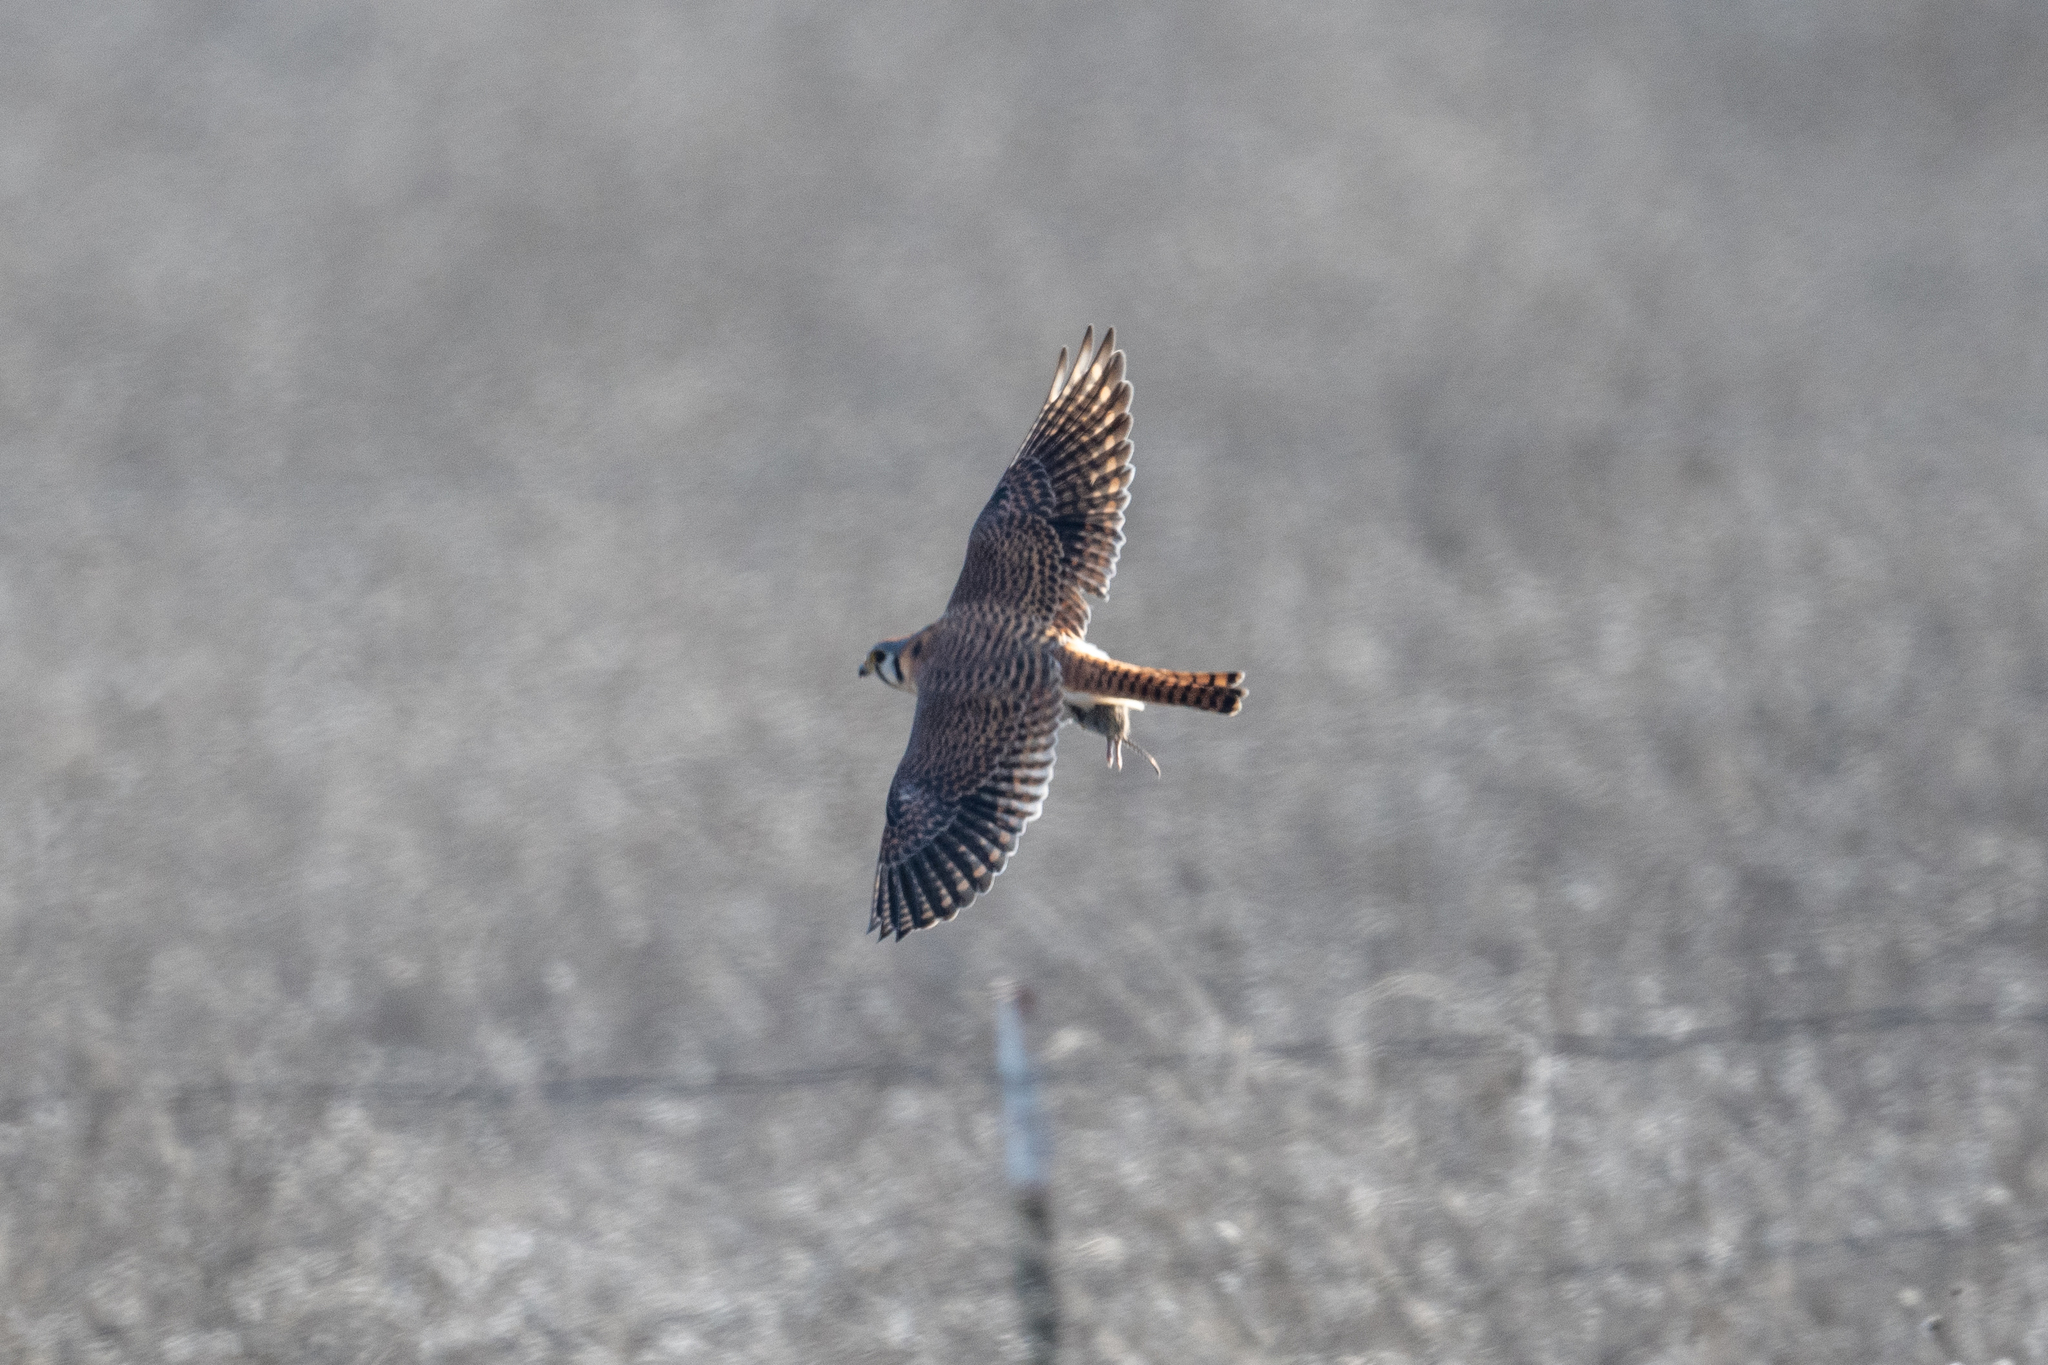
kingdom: Animalia
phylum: Chordata
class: Aves
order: Falconiformes
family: Falconidae
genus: Falco
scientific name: Falco sparverius
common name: American kestrel
